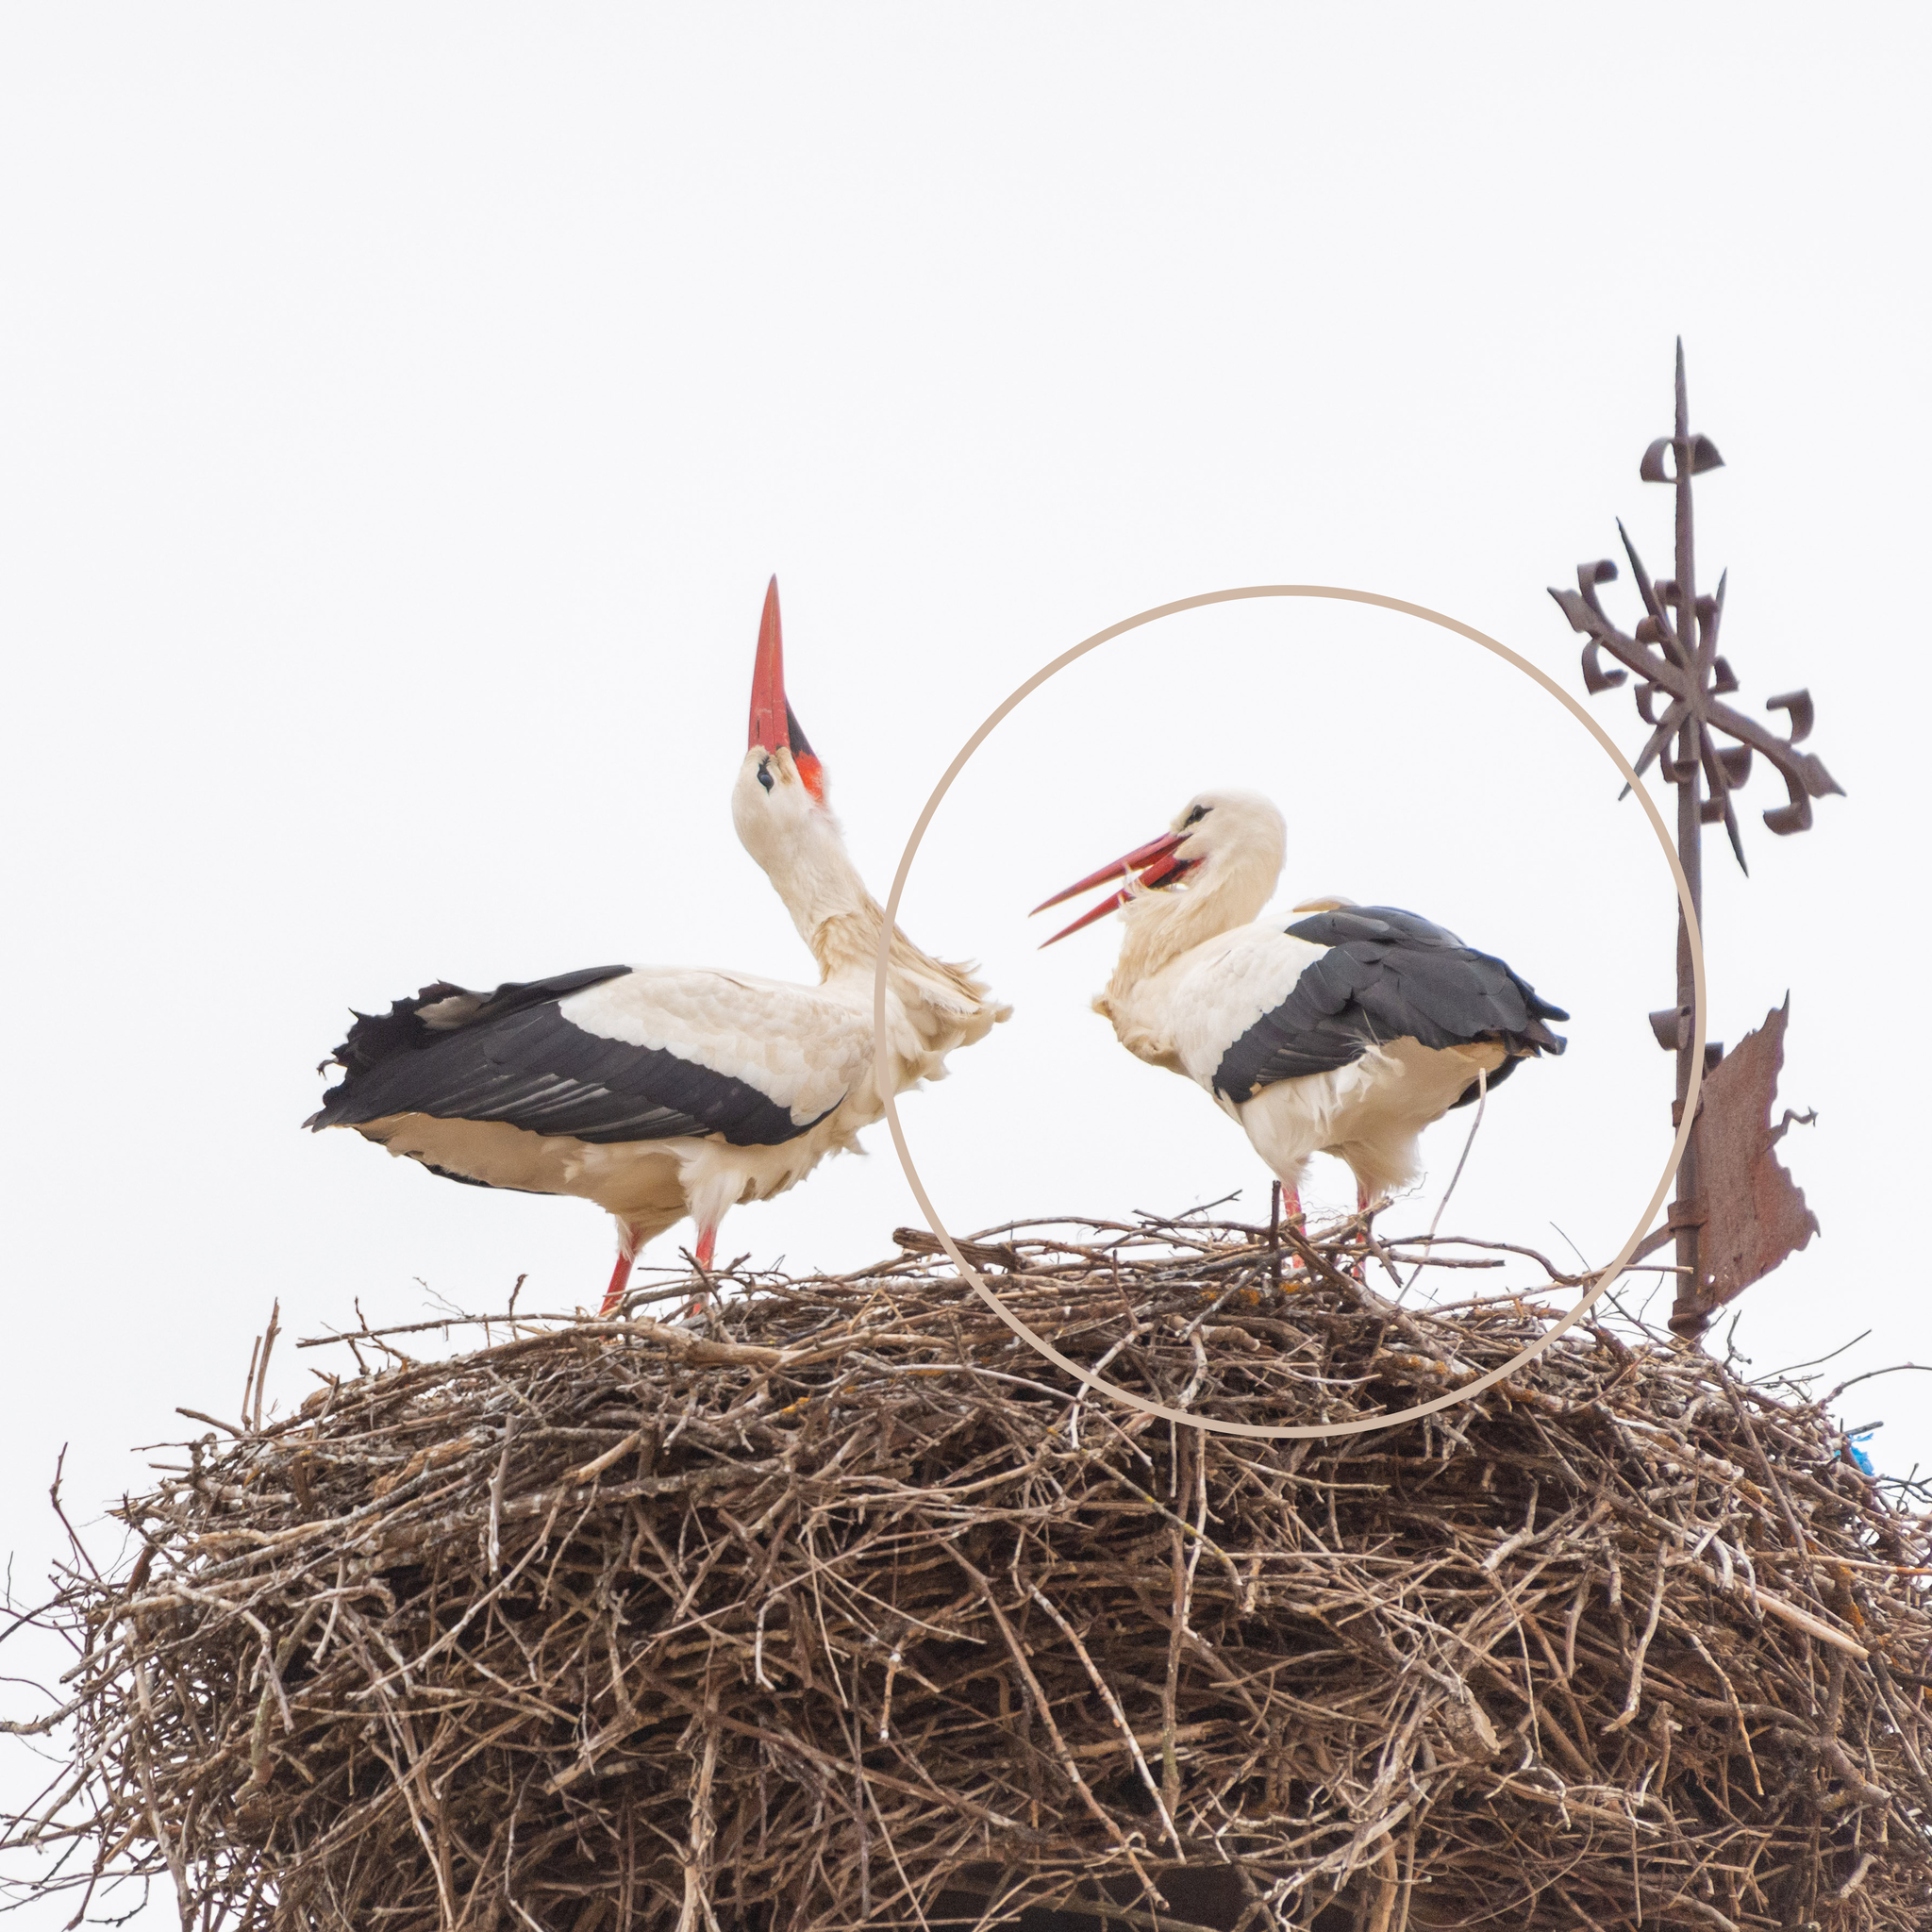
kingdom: Animalia
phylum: Chordata
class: Aves
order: Ciconiiformes
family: Ciconiidae
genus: Ciconia
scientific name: Ciconia ciconia
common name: White stork
